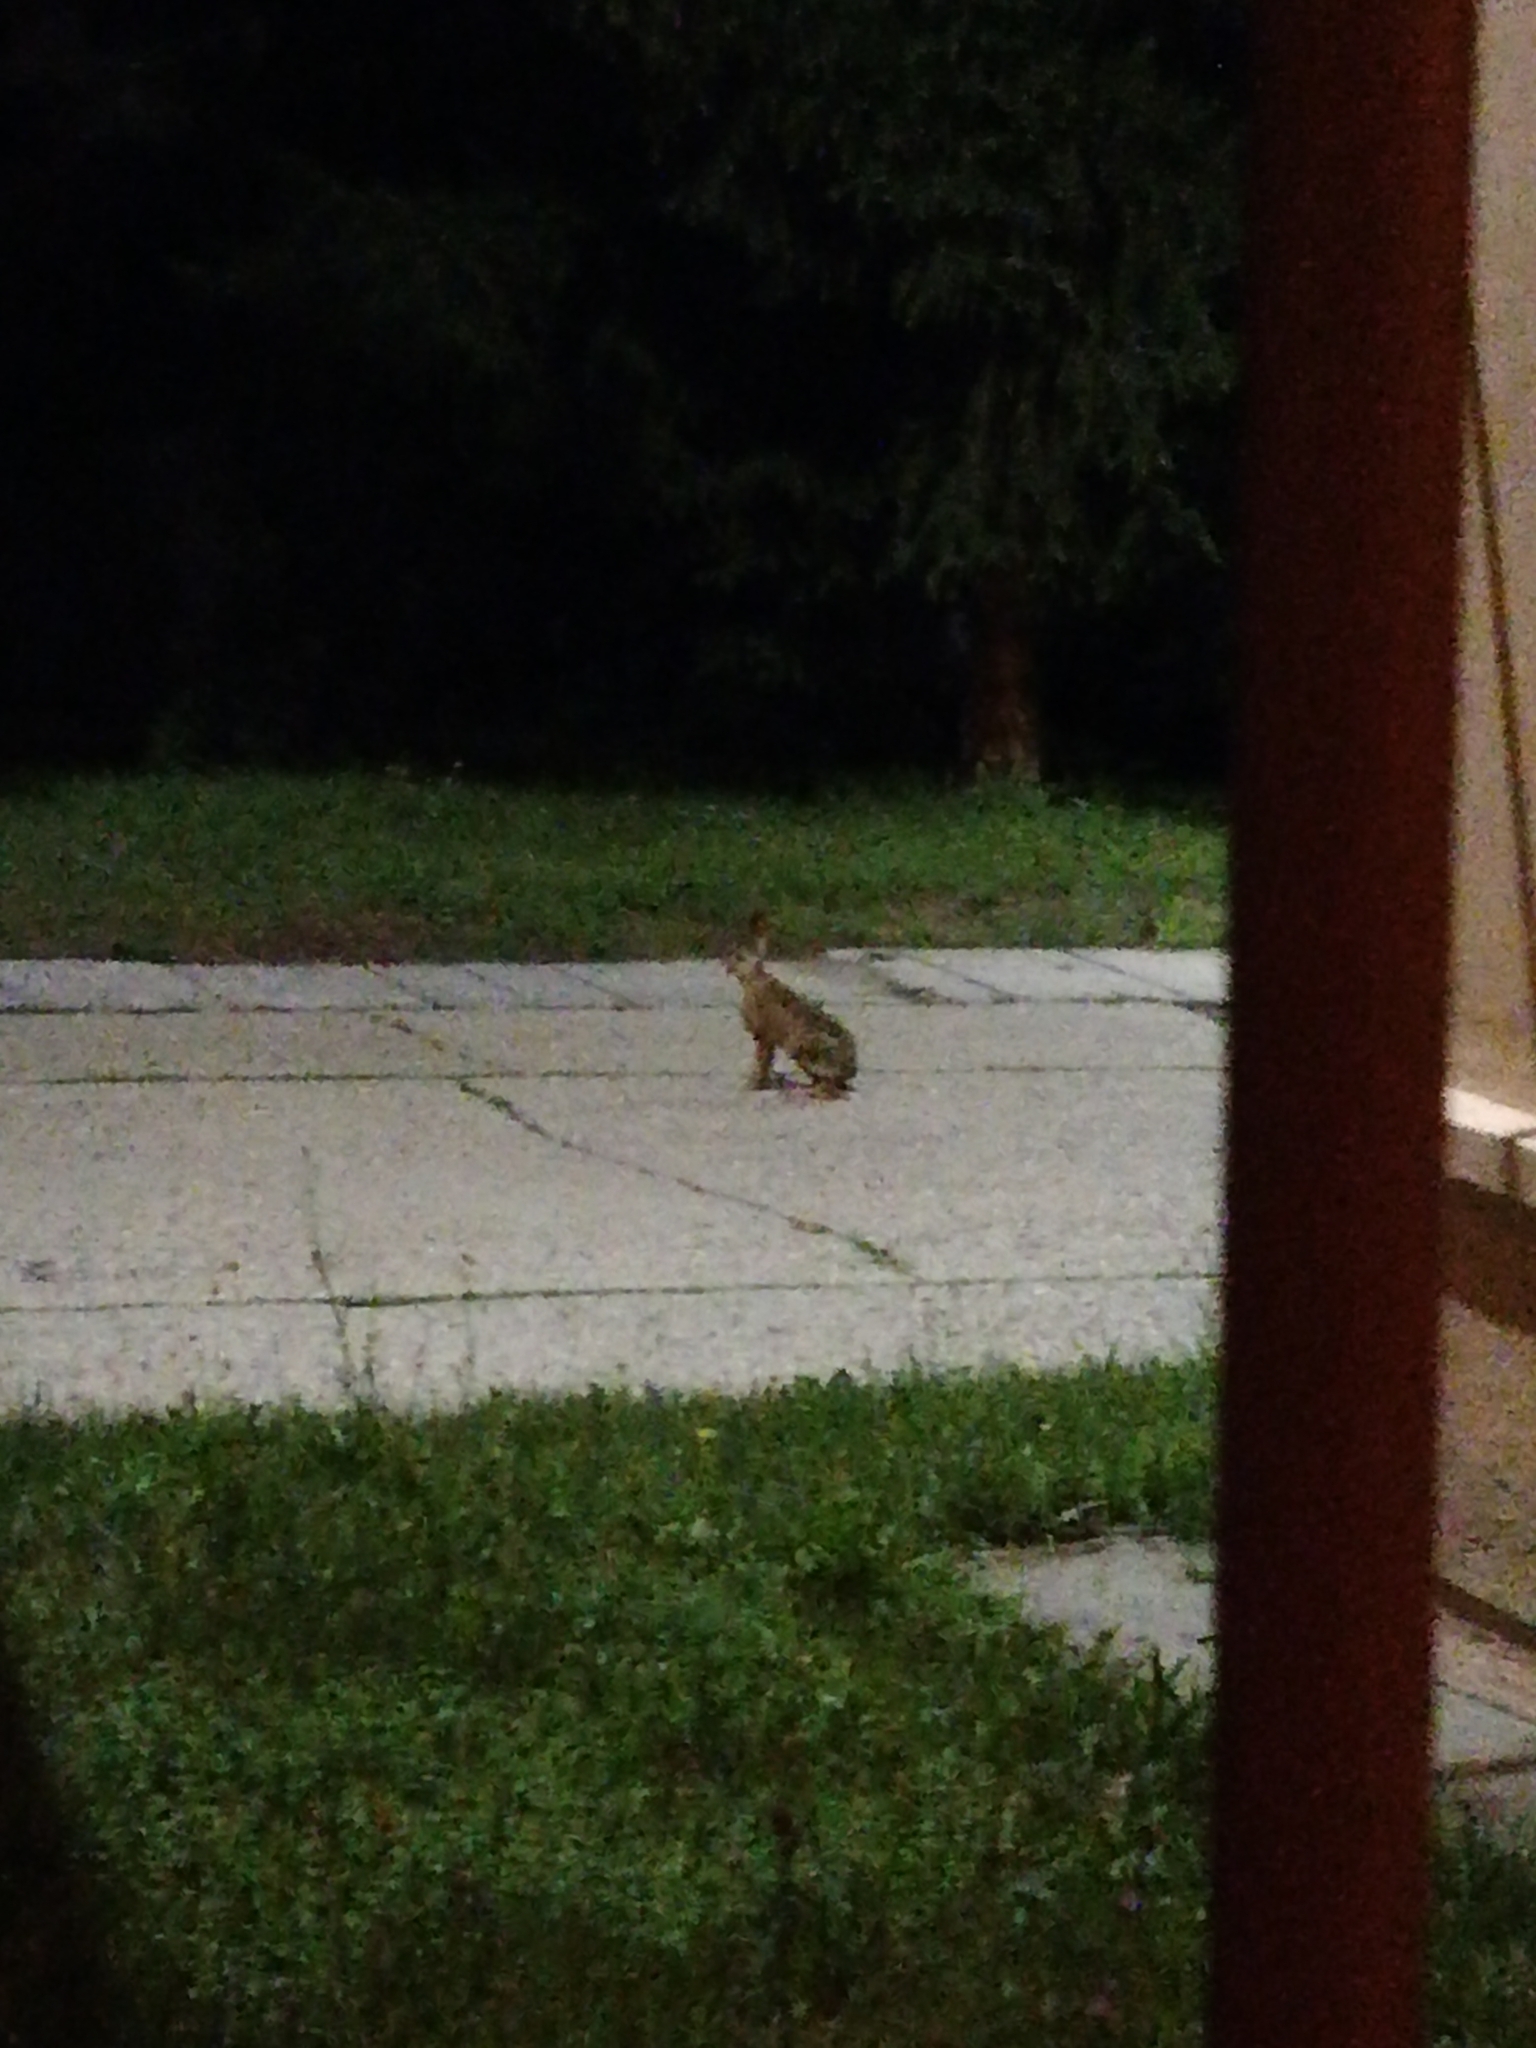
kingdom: Animalia
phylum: Chordata
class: Mammalia
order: Lagomorpha
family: Leporidae
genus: Lepus
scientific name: Lepus europaeus
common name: European hare
